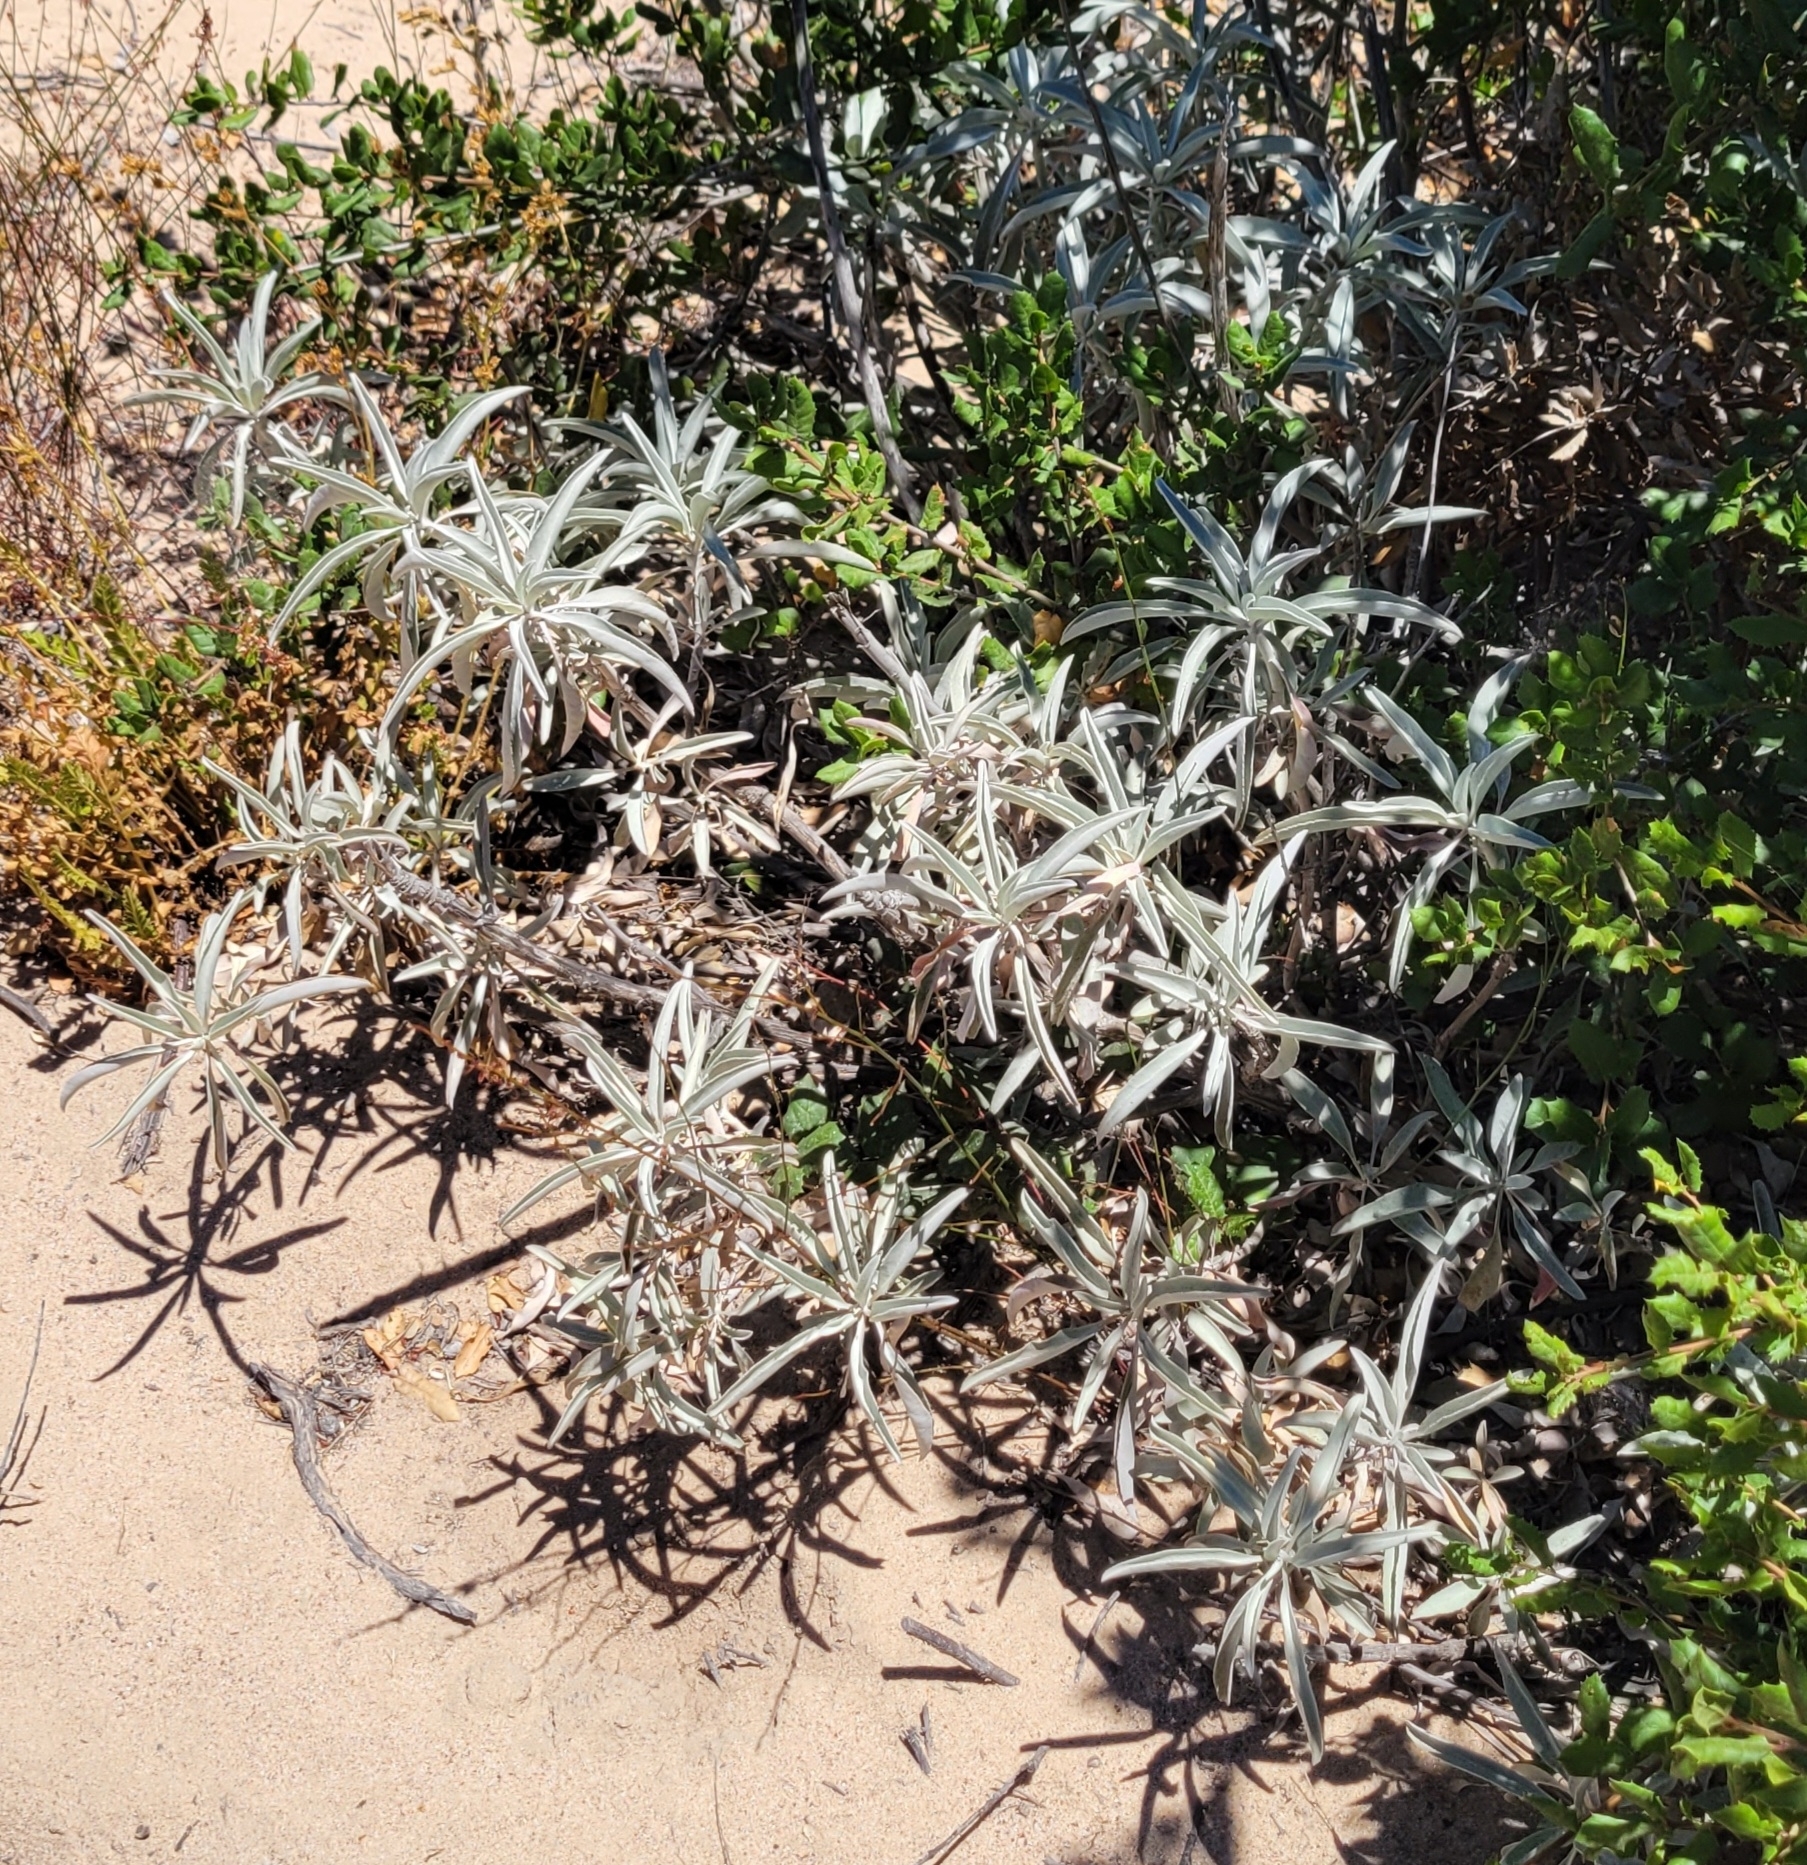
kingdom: Plantae
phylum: Tracheophyta
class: Magnoliopsida
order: Lamiales
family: Lamiaceae
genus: Salvia
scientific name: Salvia apiana
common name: White sage
